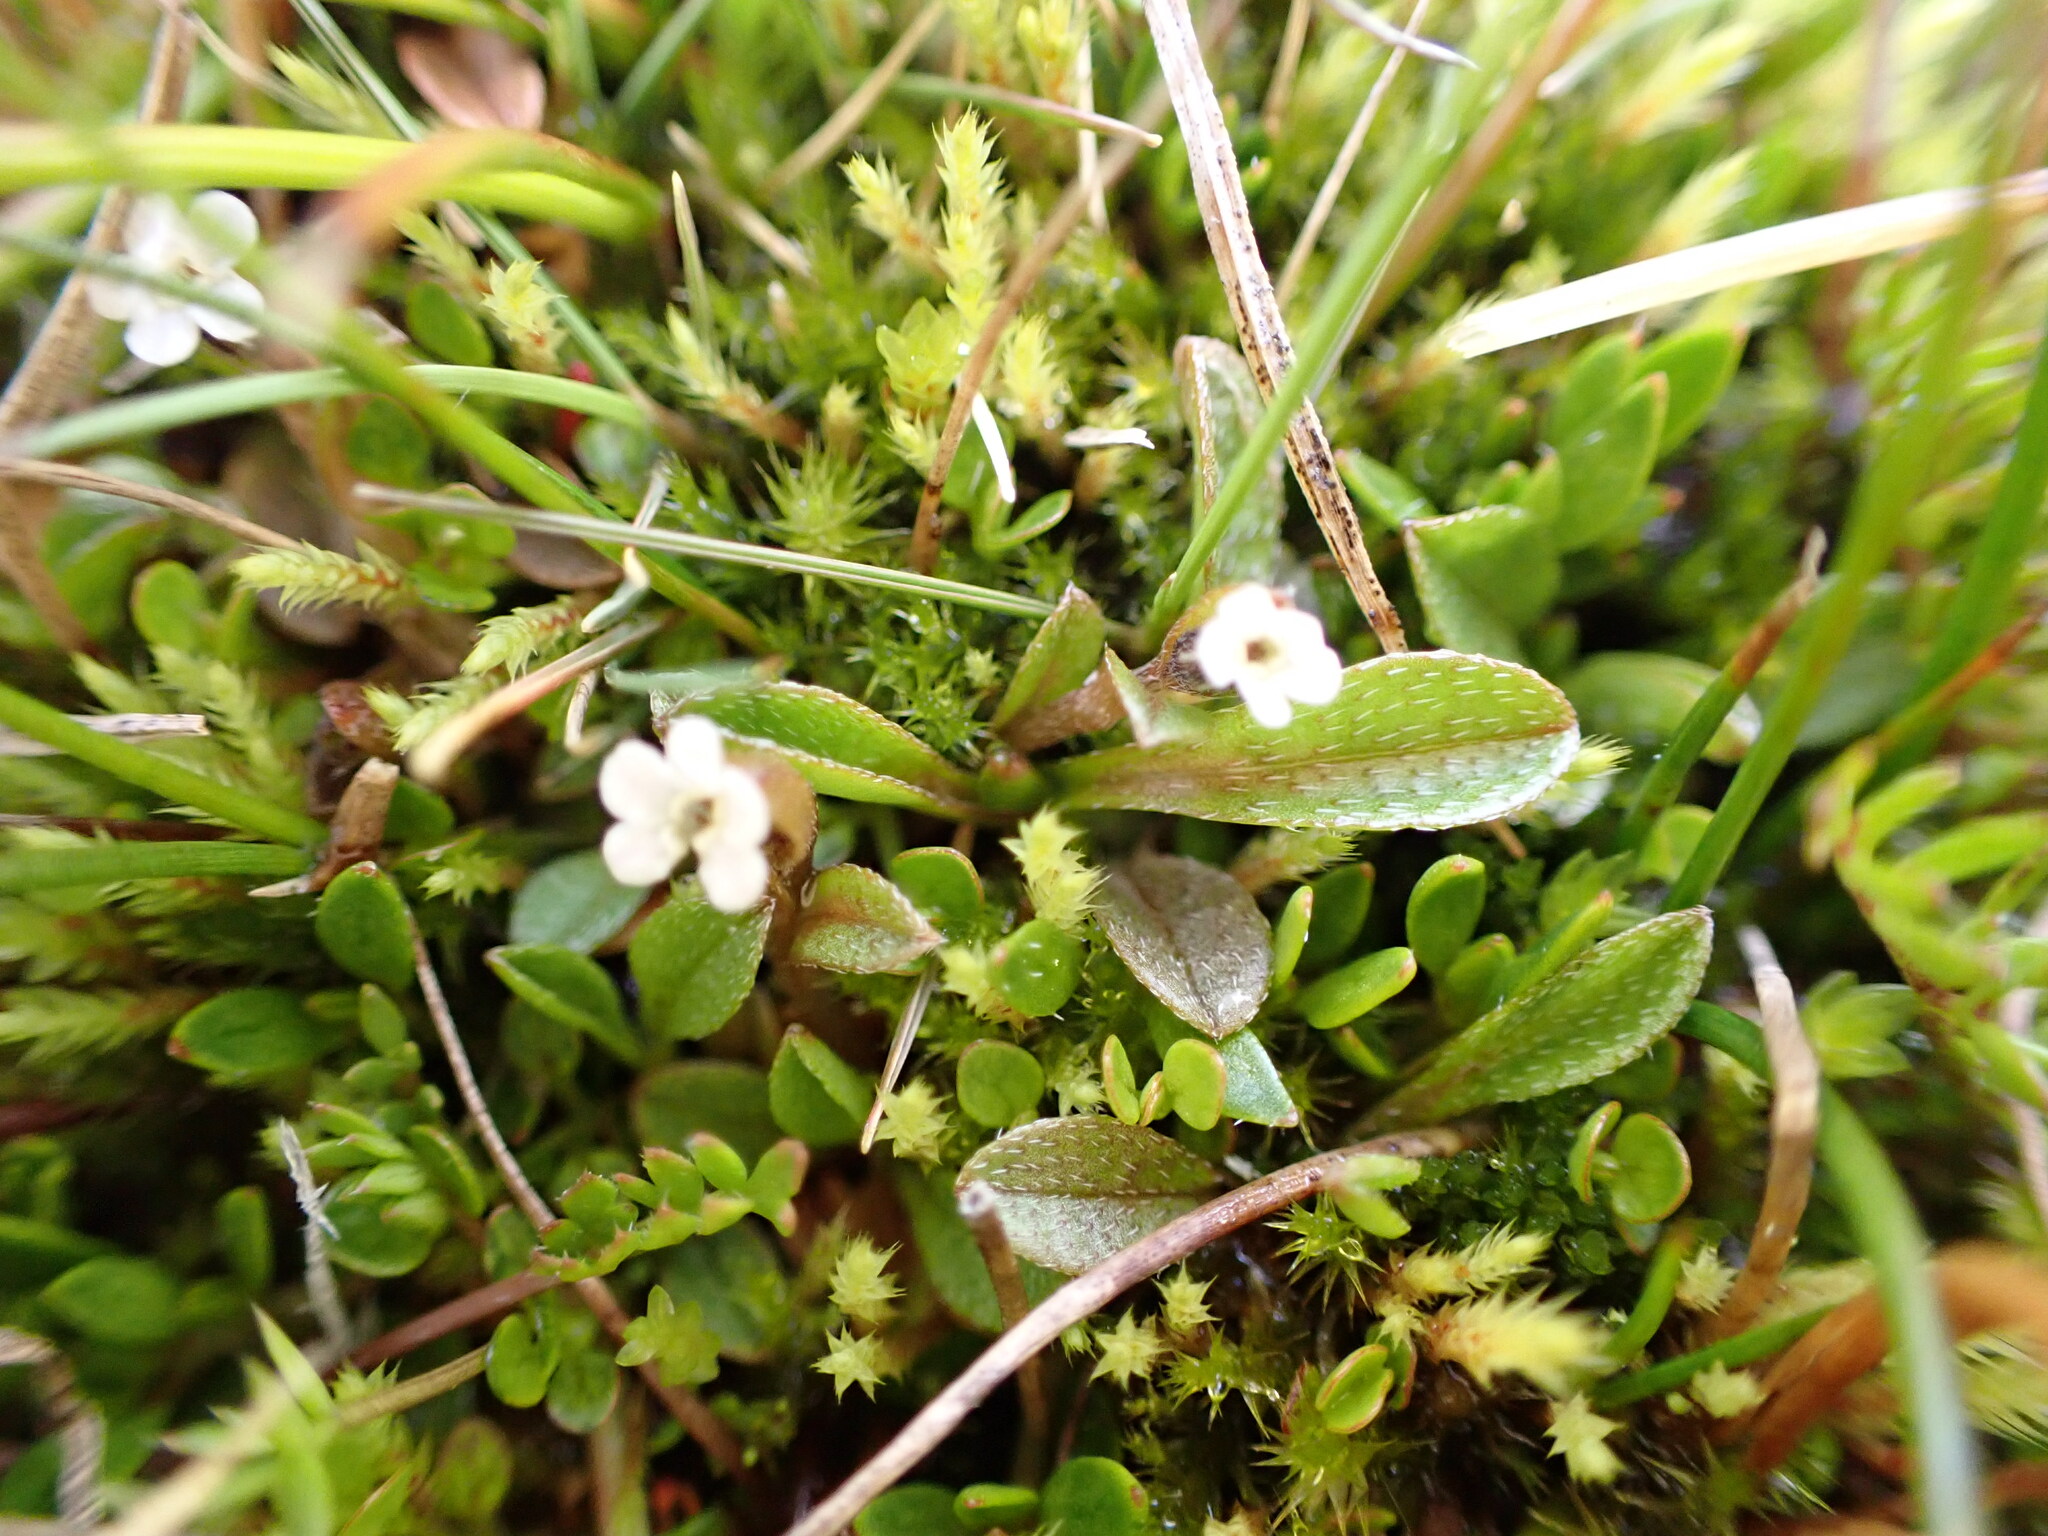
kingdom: Plantae
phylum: Tracheophyta
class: Magnoliopsida
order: Boraginales
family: Boraginaceae
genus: Myosotis
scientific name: Myosotis bryonoma
